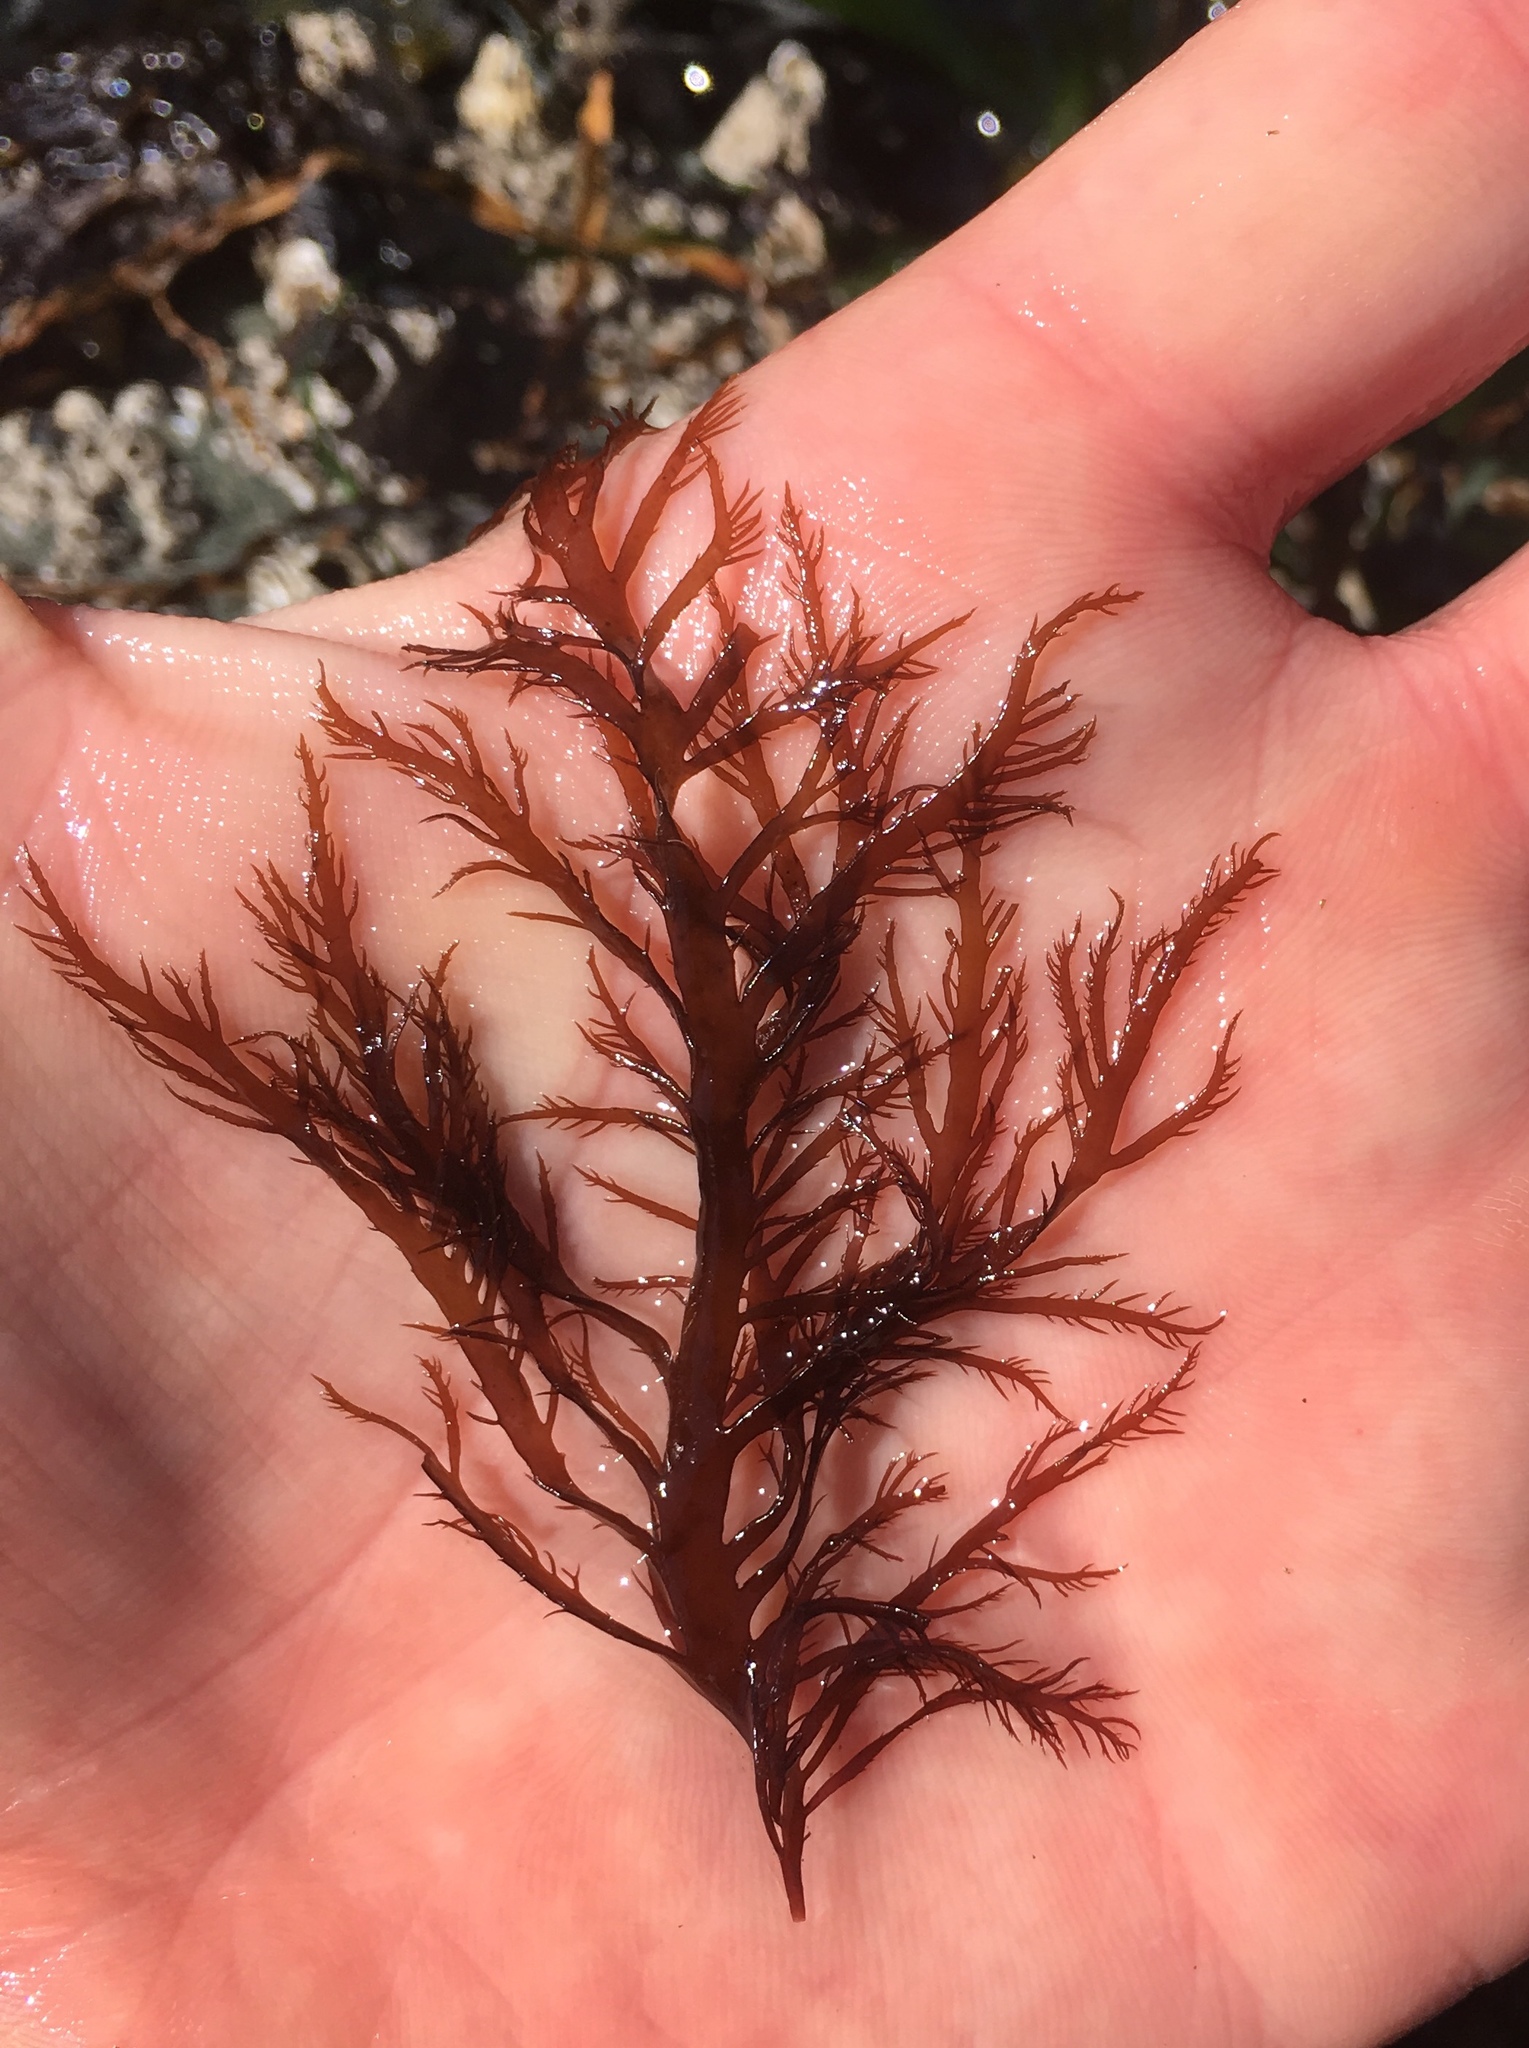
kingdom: Plantae
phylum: Rhodophyta
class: Florideophyceae
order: Gigartinales
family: Dumontiaceae
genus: Farlowia
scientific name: Farlowia mollis
